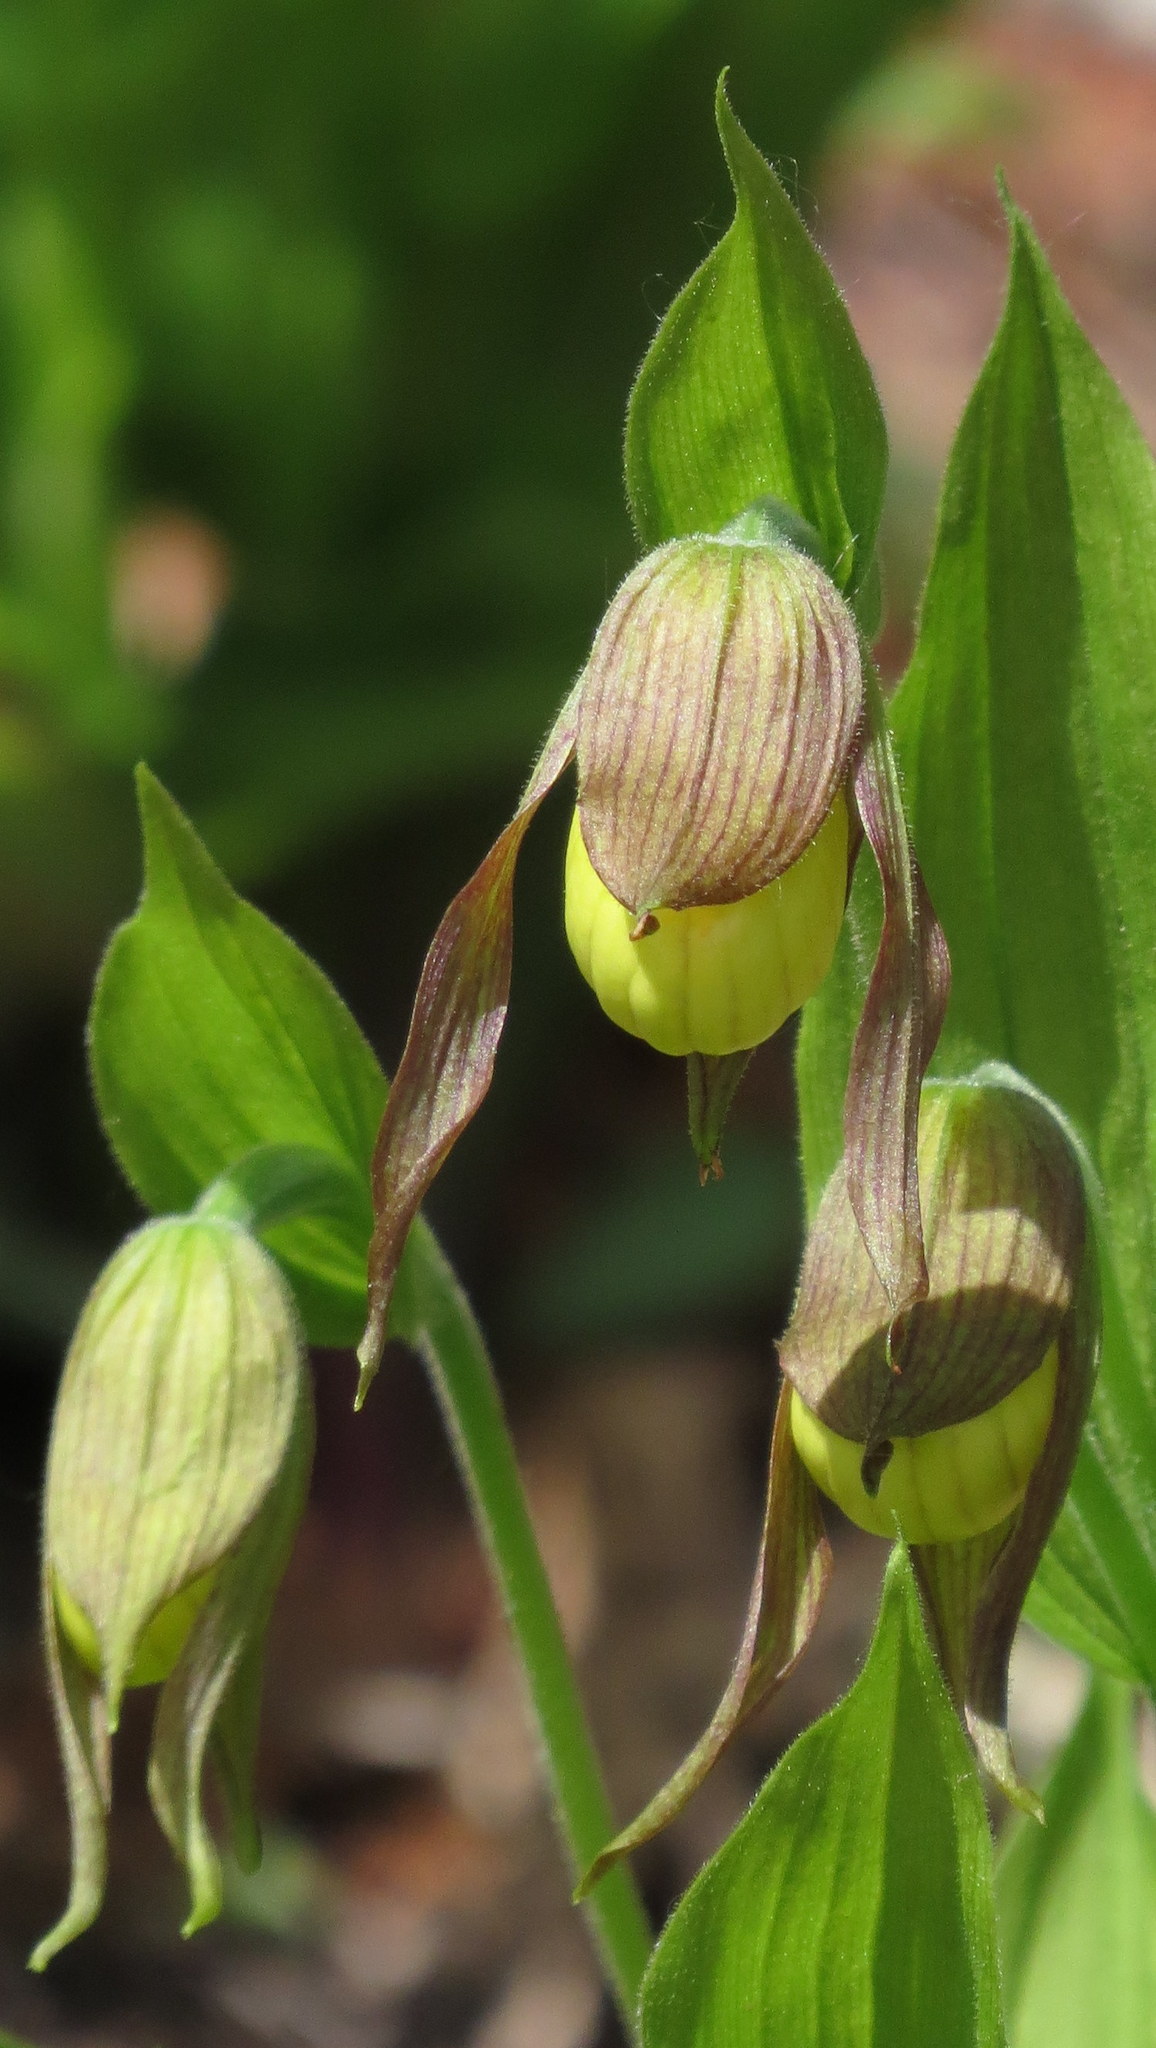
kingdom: Plantae
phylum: Tracheophyta
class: Liliopsida
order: Asparagales
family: Orchidaceae
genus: Cypripedium
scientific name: Cypripedium parviflorum
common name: American yellow lady's-slipper
